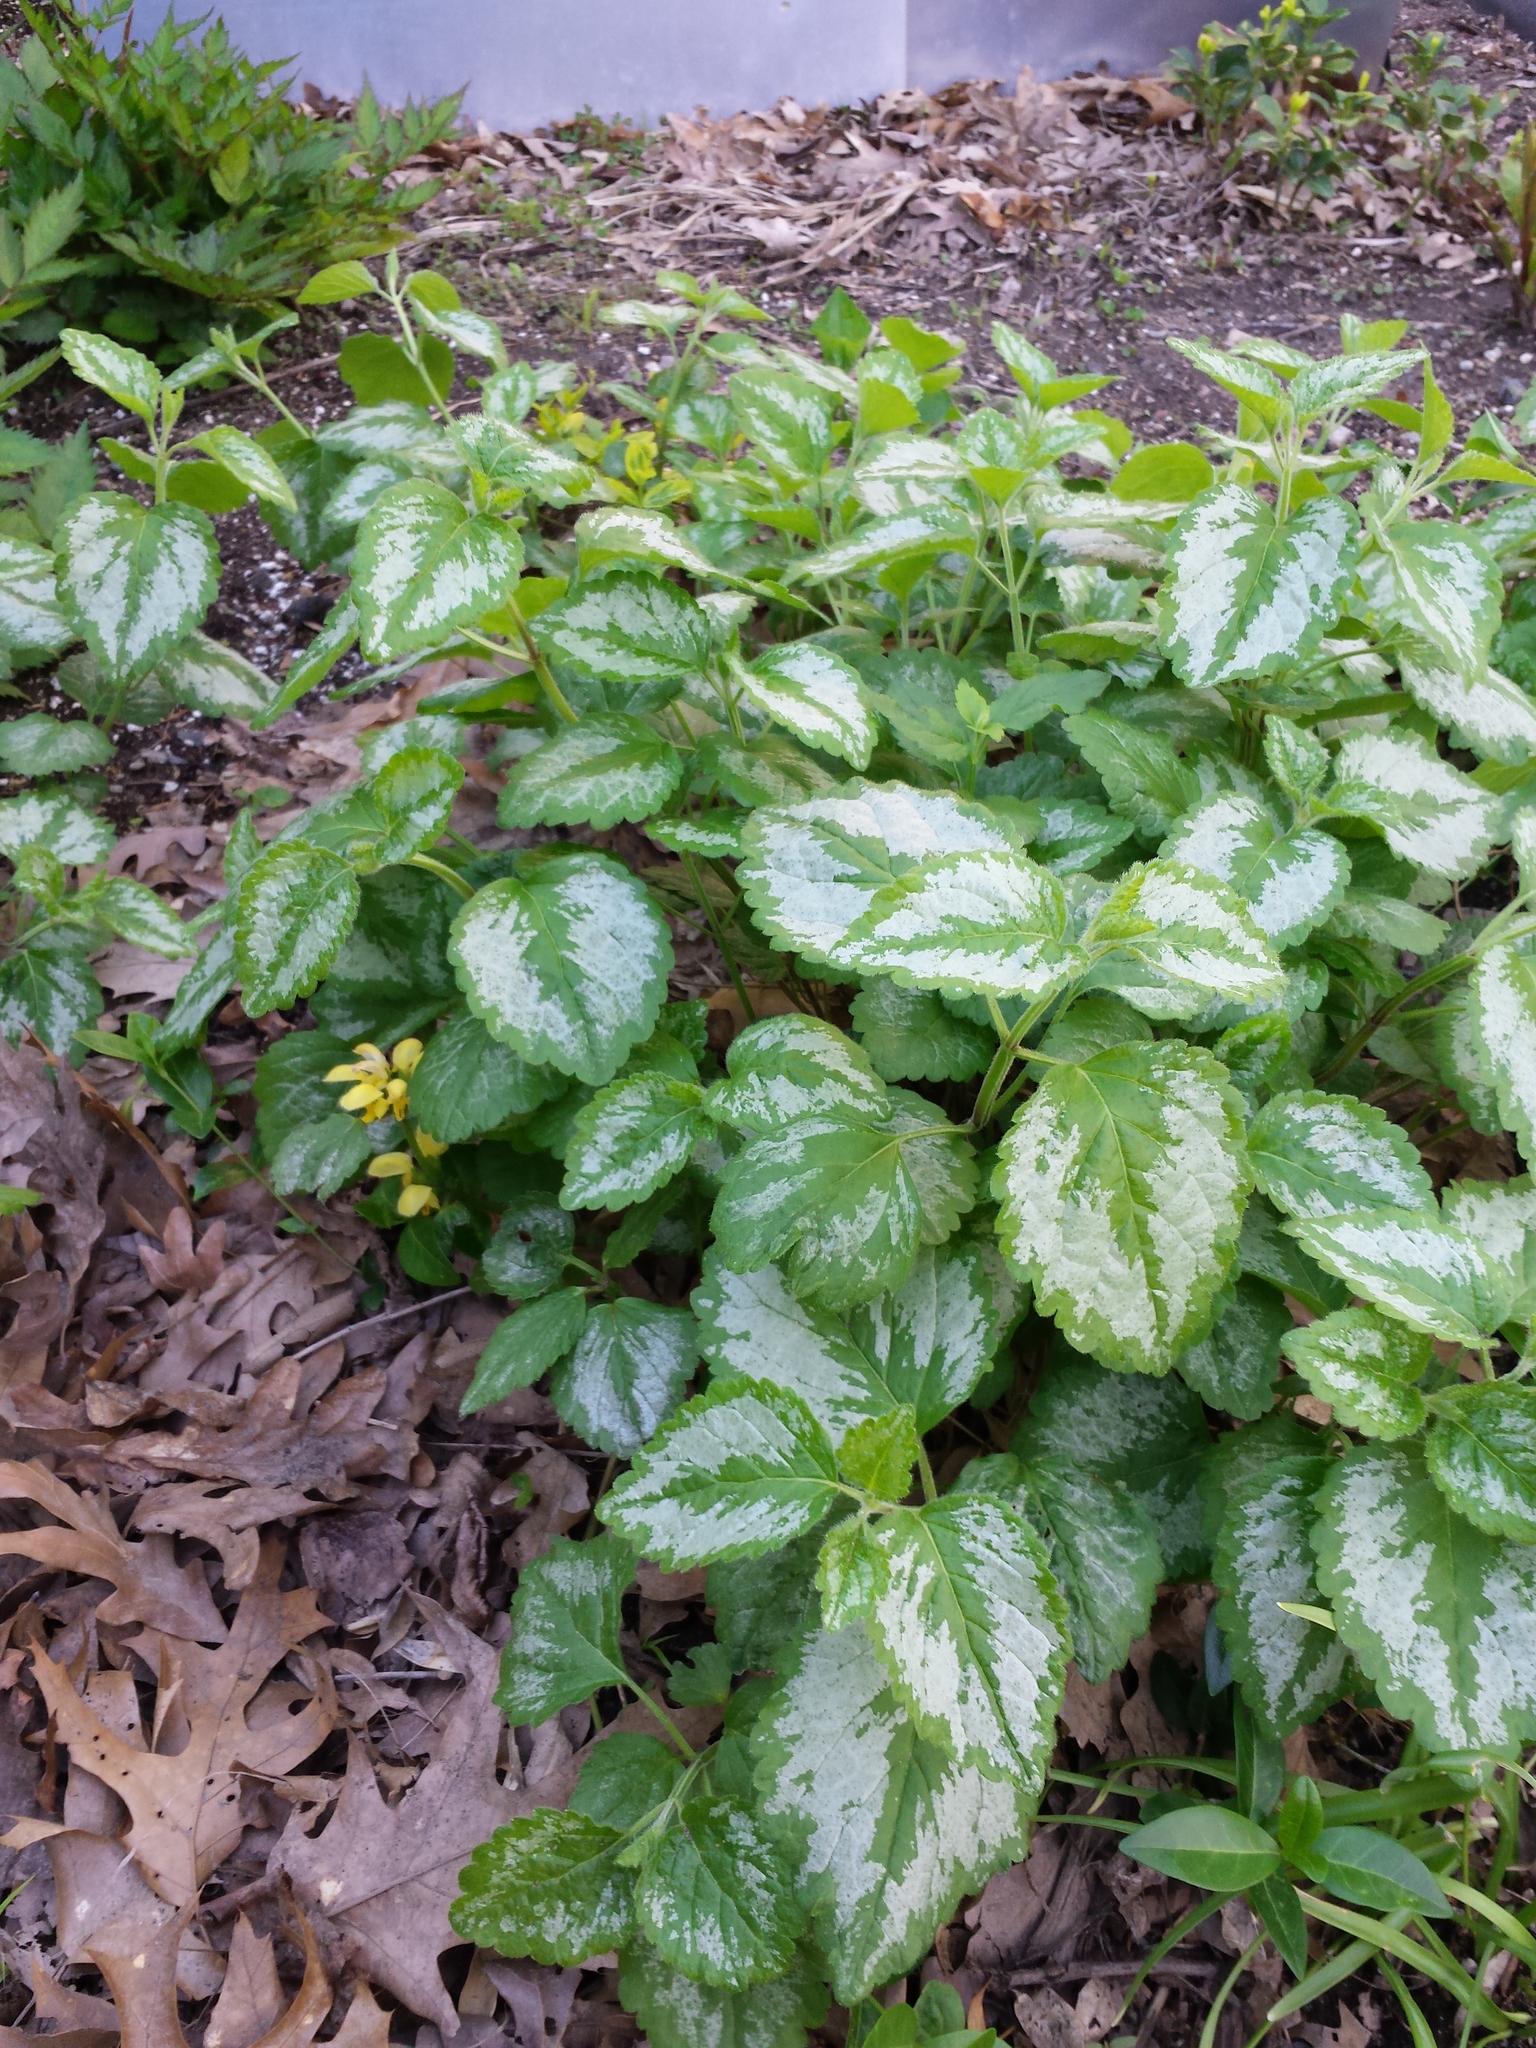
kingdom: Plantae
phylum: Tracheophyta
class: Magnoliopsida
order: Lamiales
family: Lamiaceae
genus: Lamium
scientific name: Lamium galeobdolon
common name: Yellow archangel
